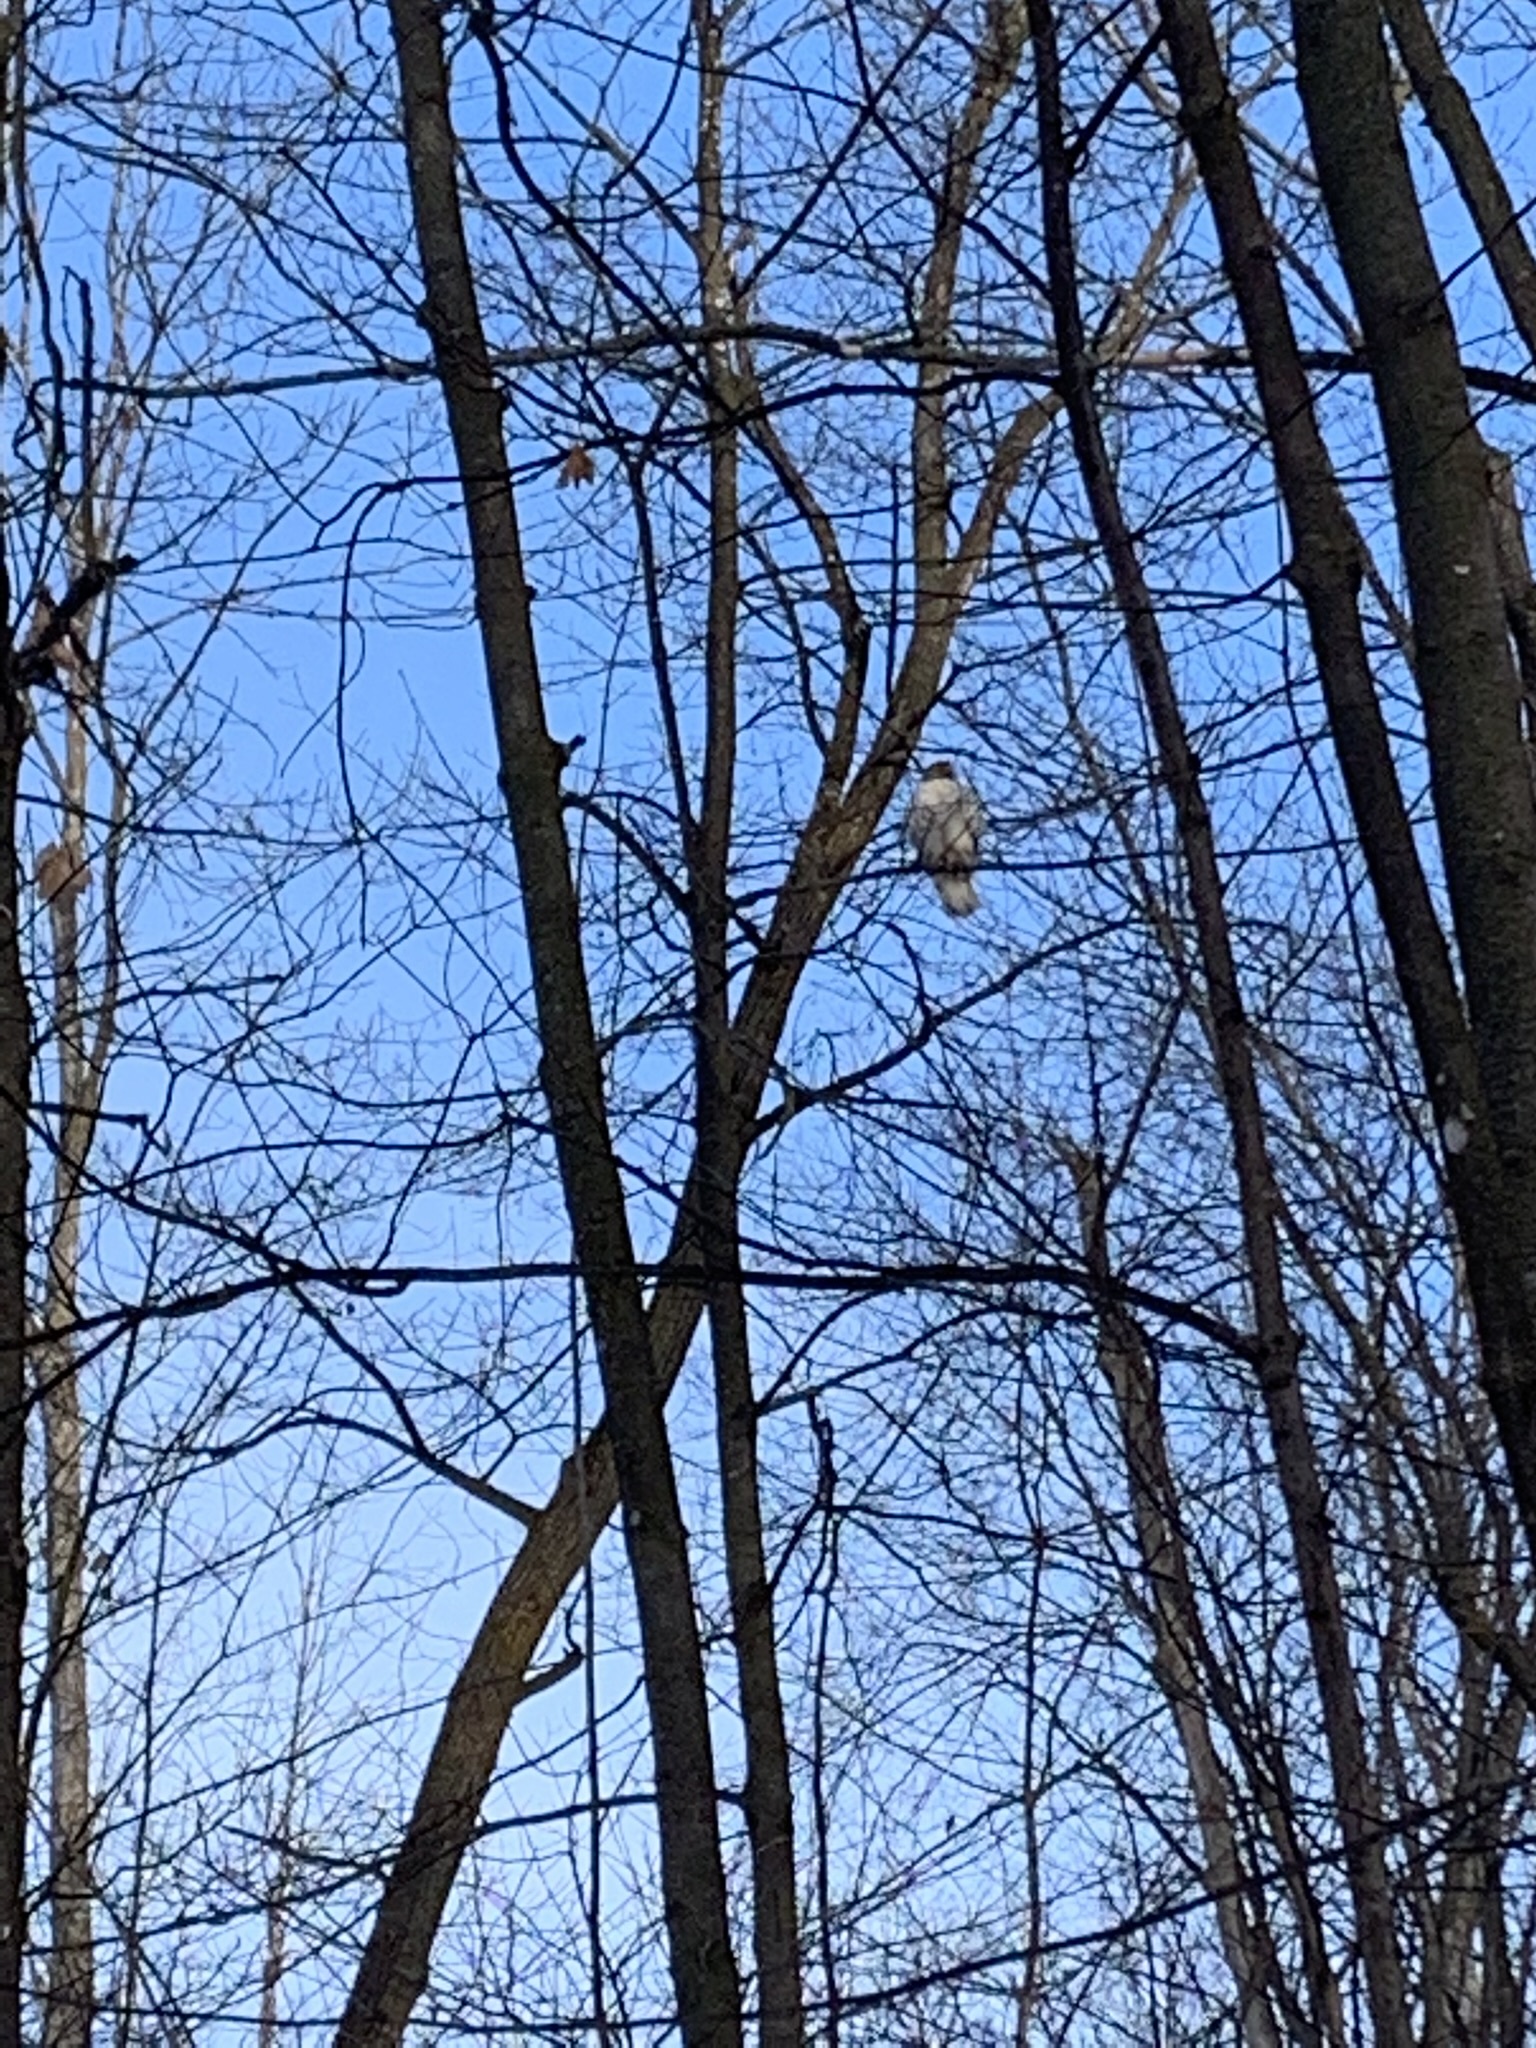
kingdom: Animalia
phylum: Chordata
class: Aves
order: Accipitriformes
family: Accipitridae
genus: Buteo
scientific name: Buteo jamaicensis
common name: Red-tailed hawk
